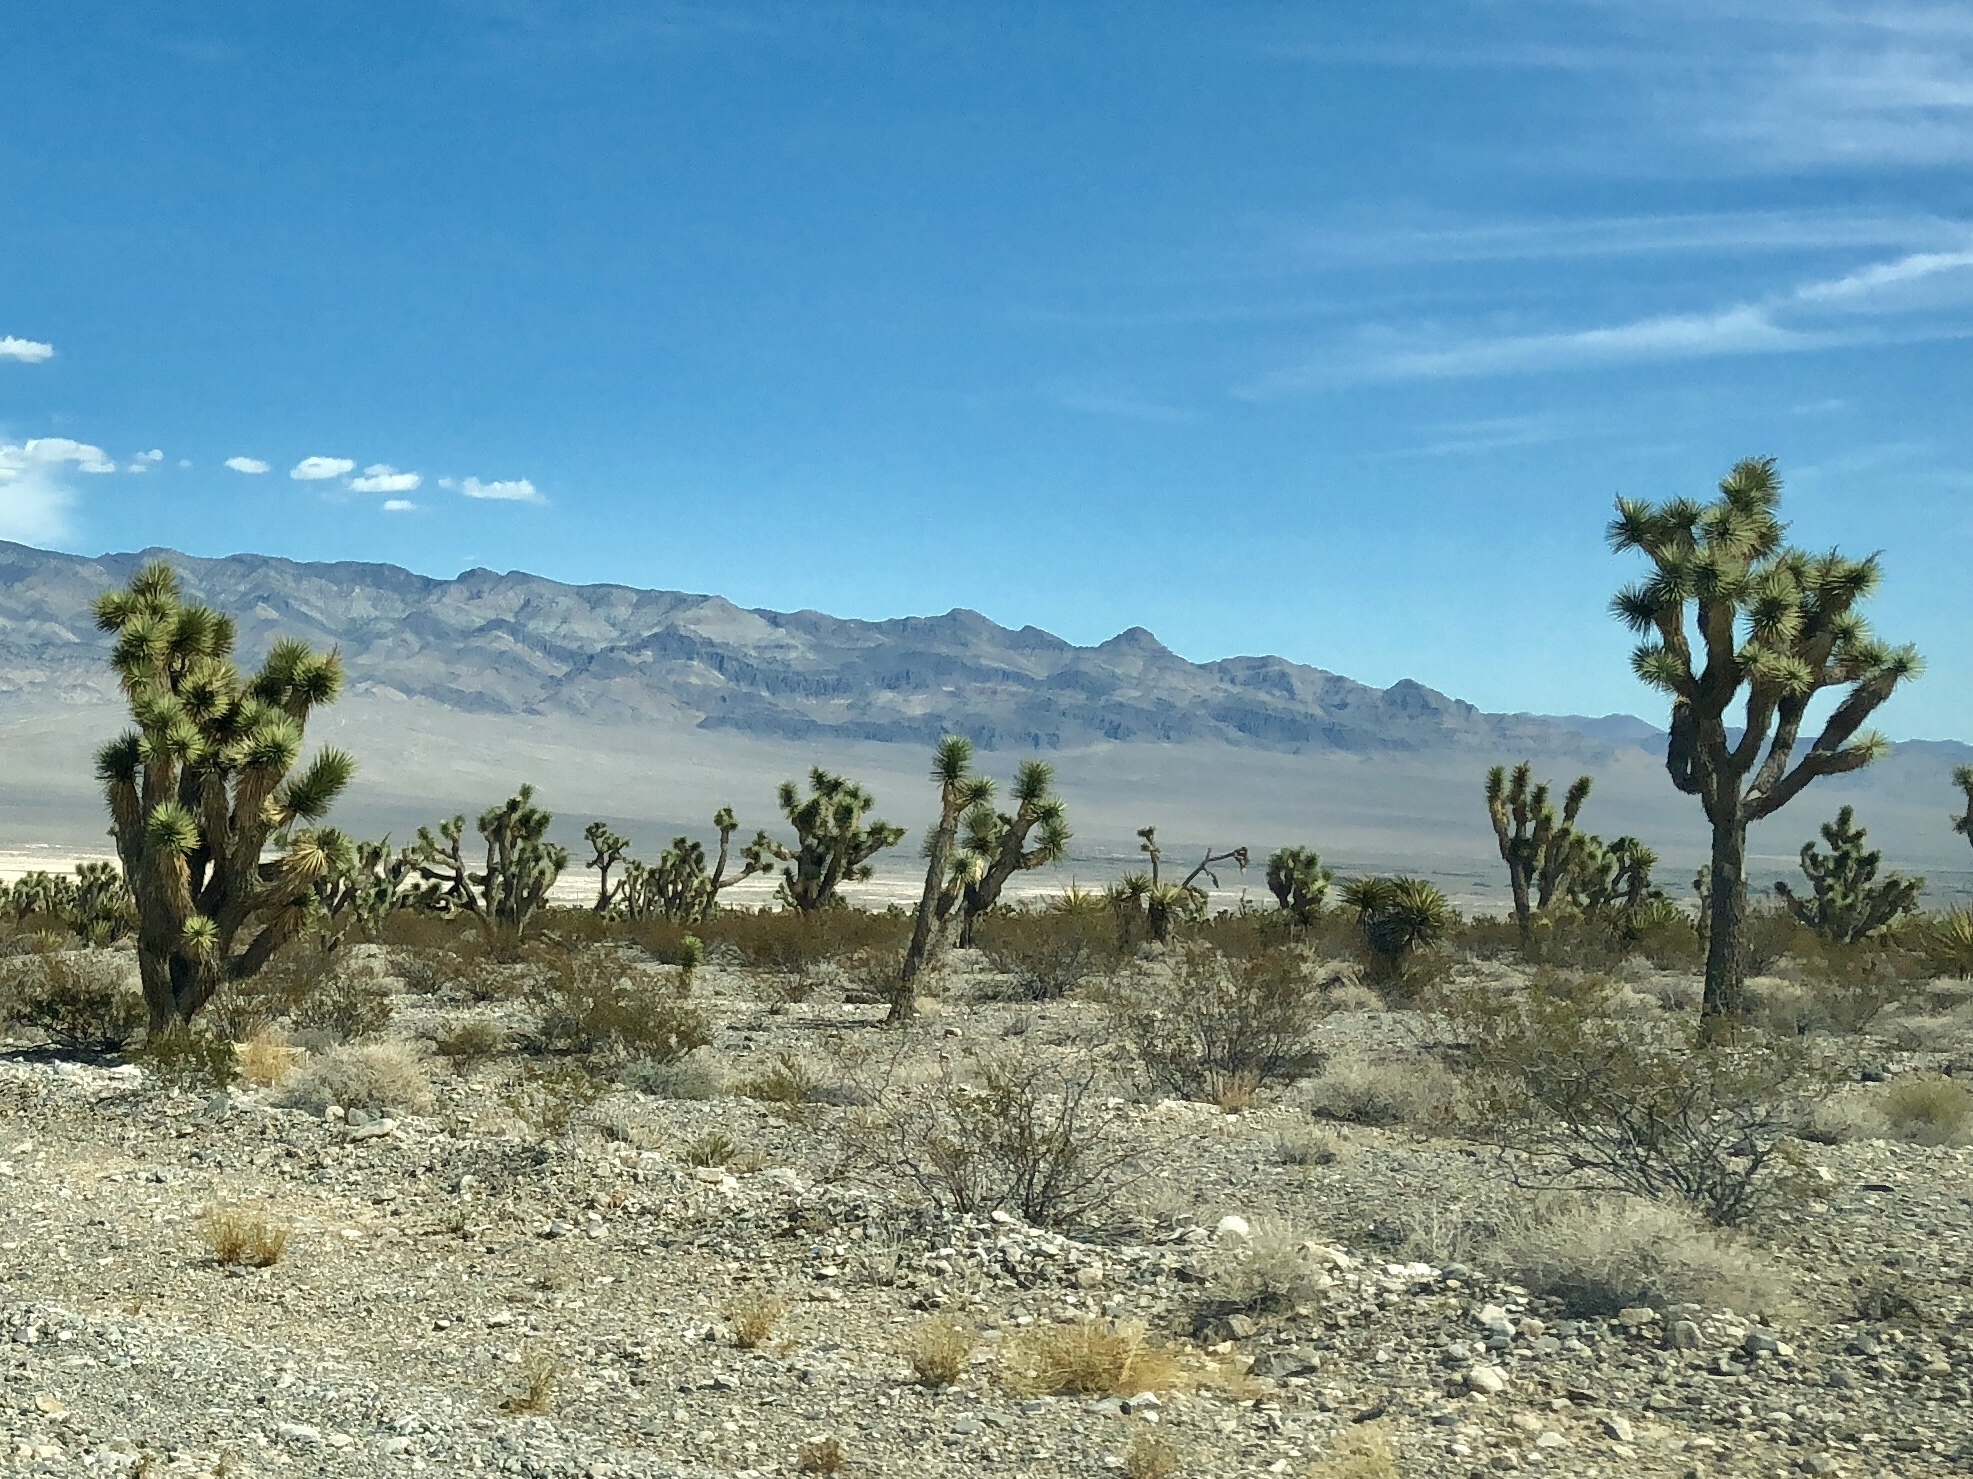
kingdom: Plantae
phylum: Tracheophyta
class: Liliopsida
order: Asparagales
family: Asparagaceae
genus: Yucca
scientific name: Yucca brevifolia
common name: Joshua tree
